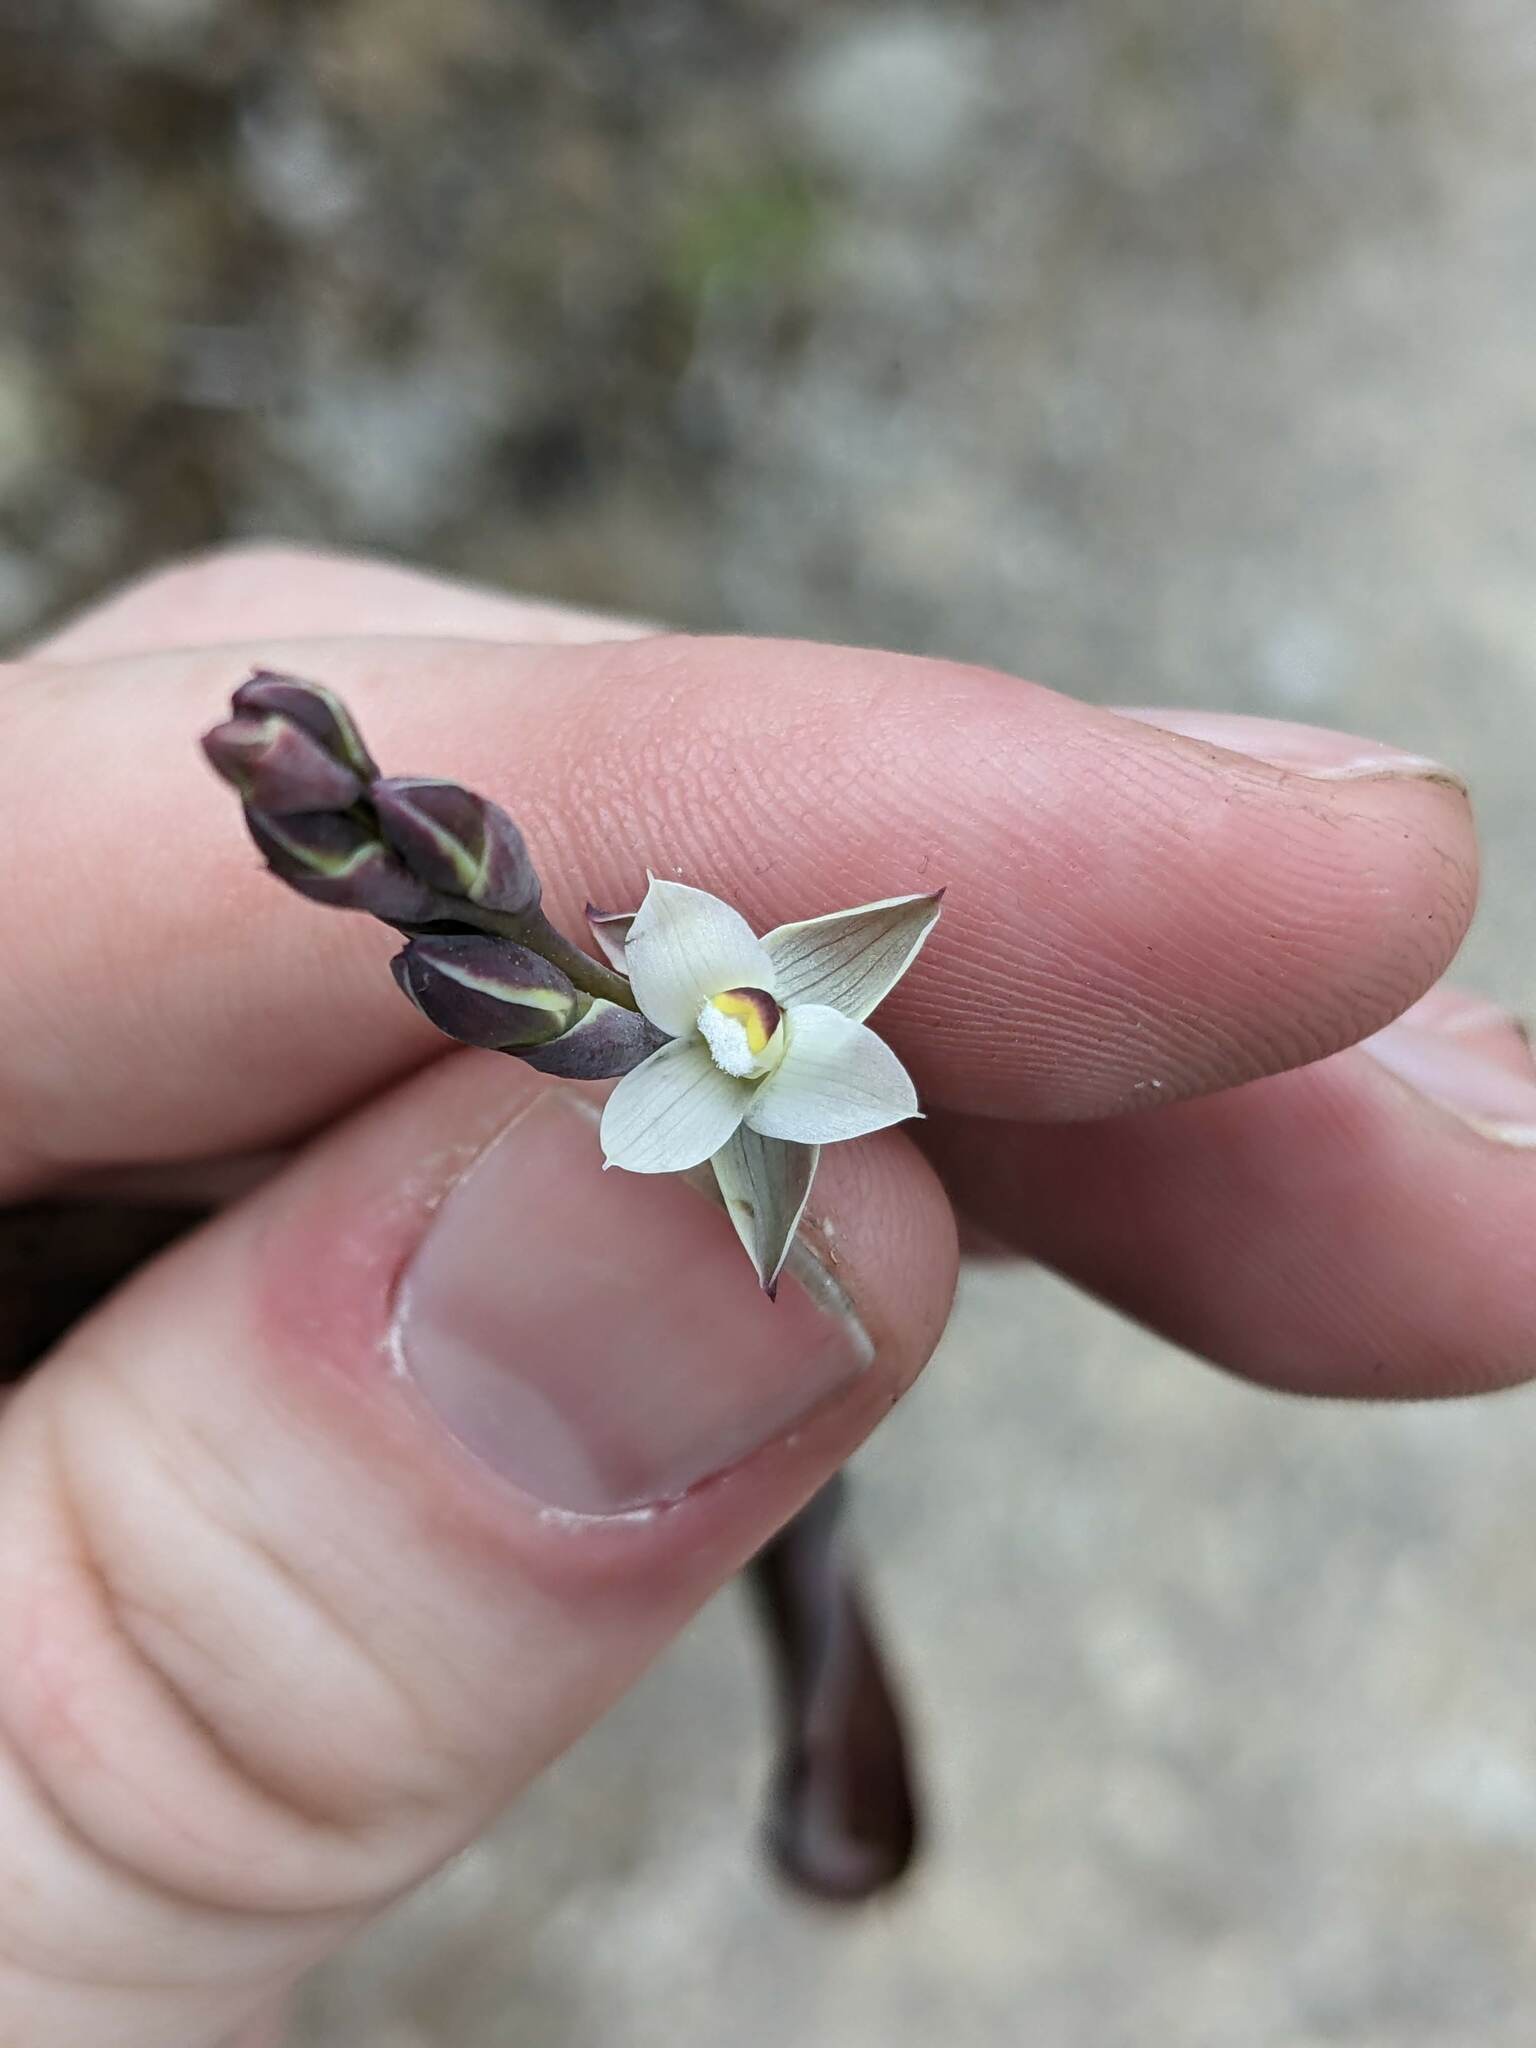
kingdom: Plantae
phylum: Tracheophyta
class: Liliopsida
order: Asparagales
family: Orchidaceae
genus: Thelymitra
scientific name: Thelymitra longifolia
